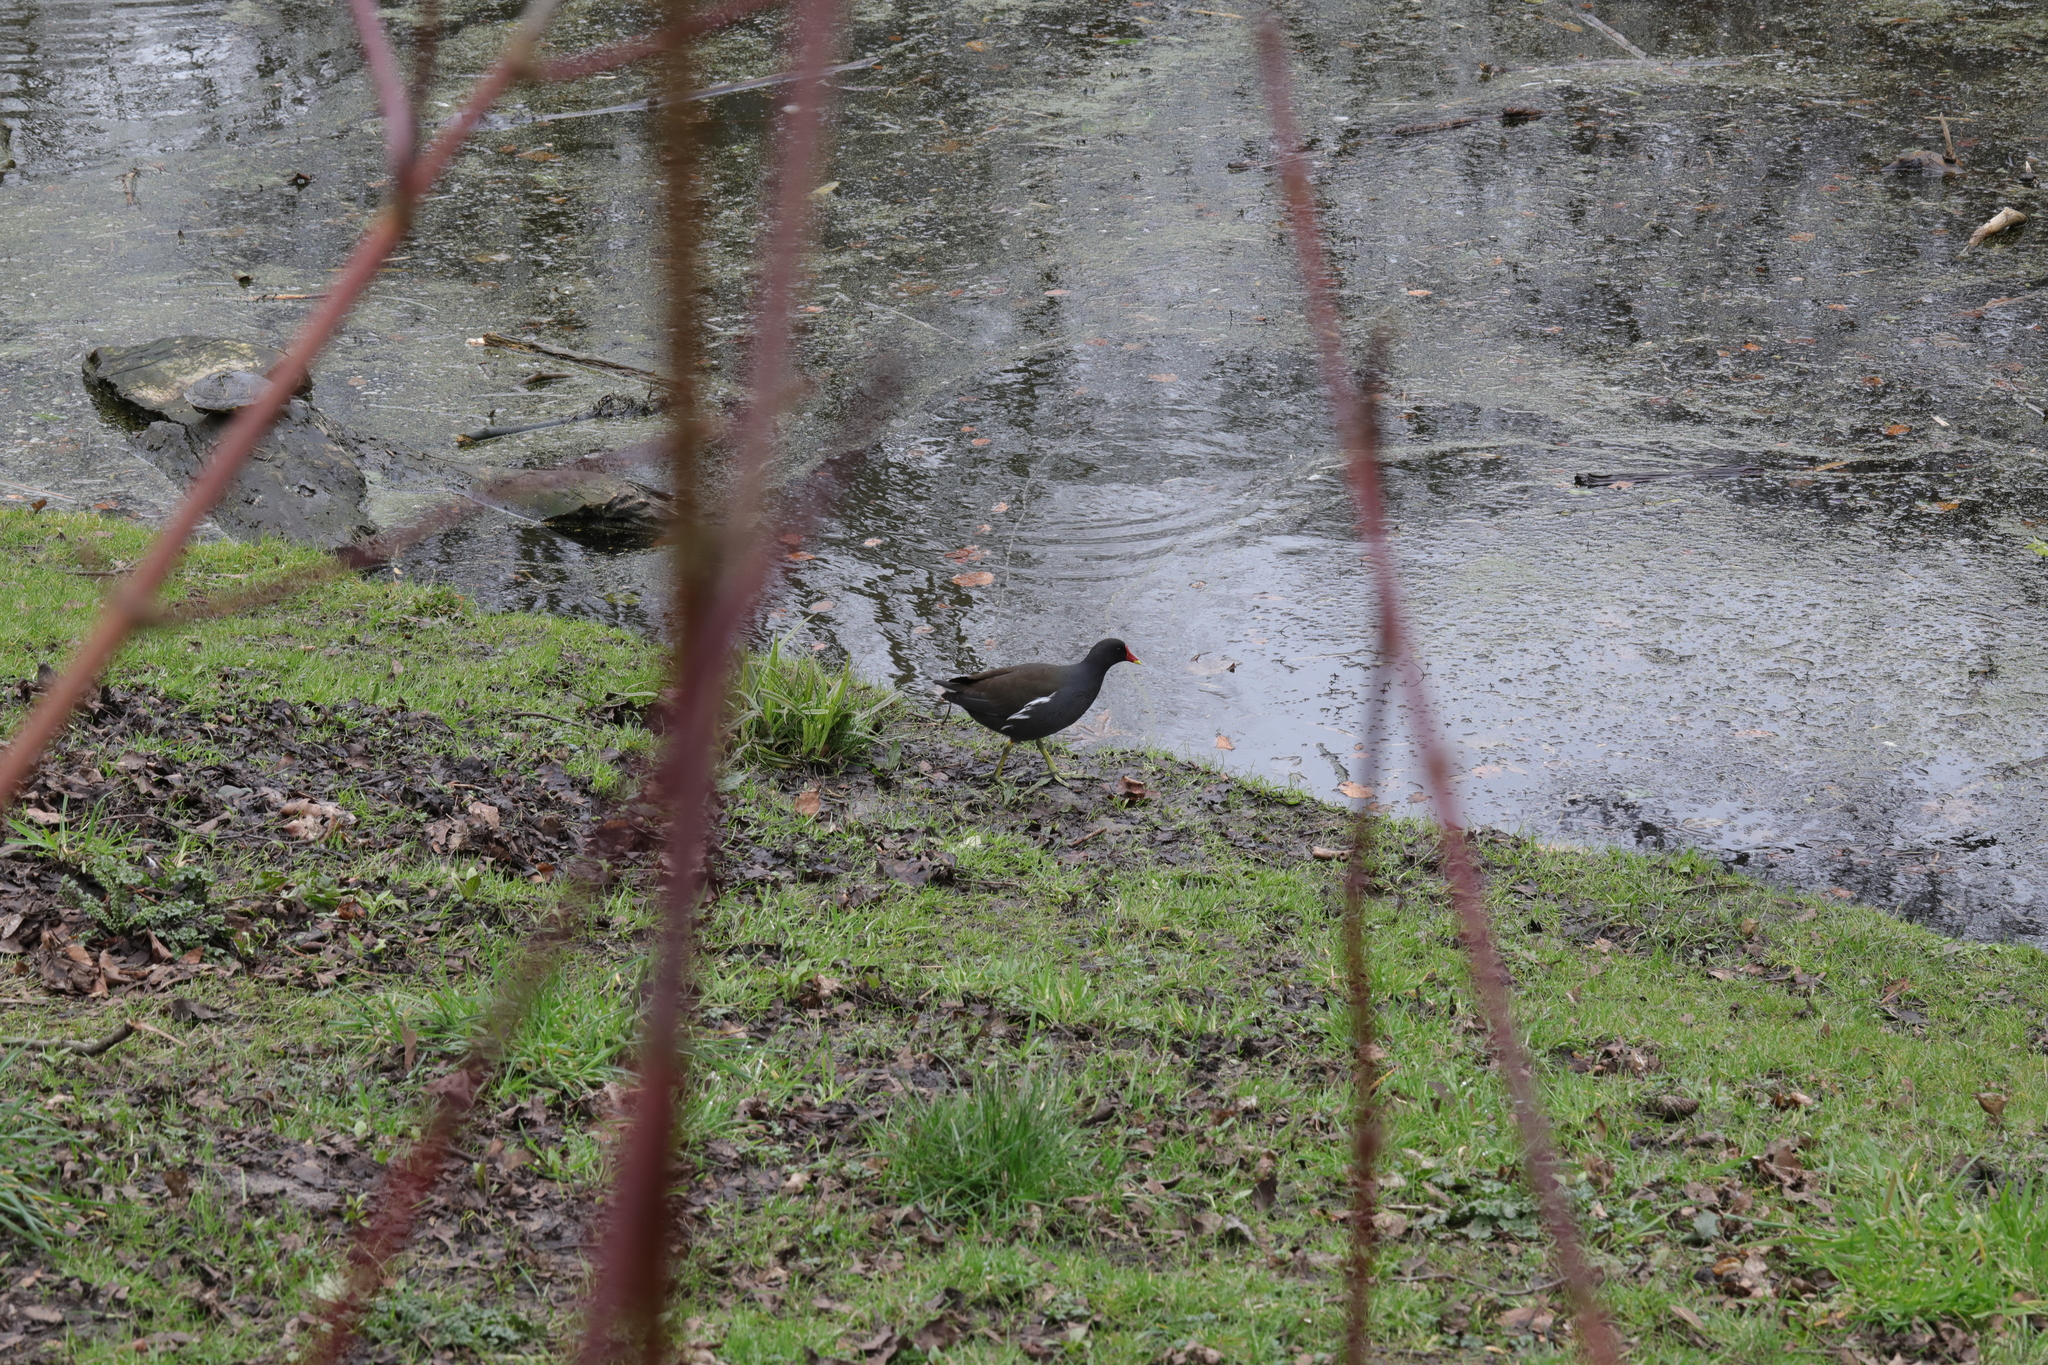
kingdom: Animalia
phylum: Chordata
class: Aves
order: Gruiformes
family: Rallidae
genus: Gallinula
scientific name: Gallinula chloropus
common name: Common moorhen
